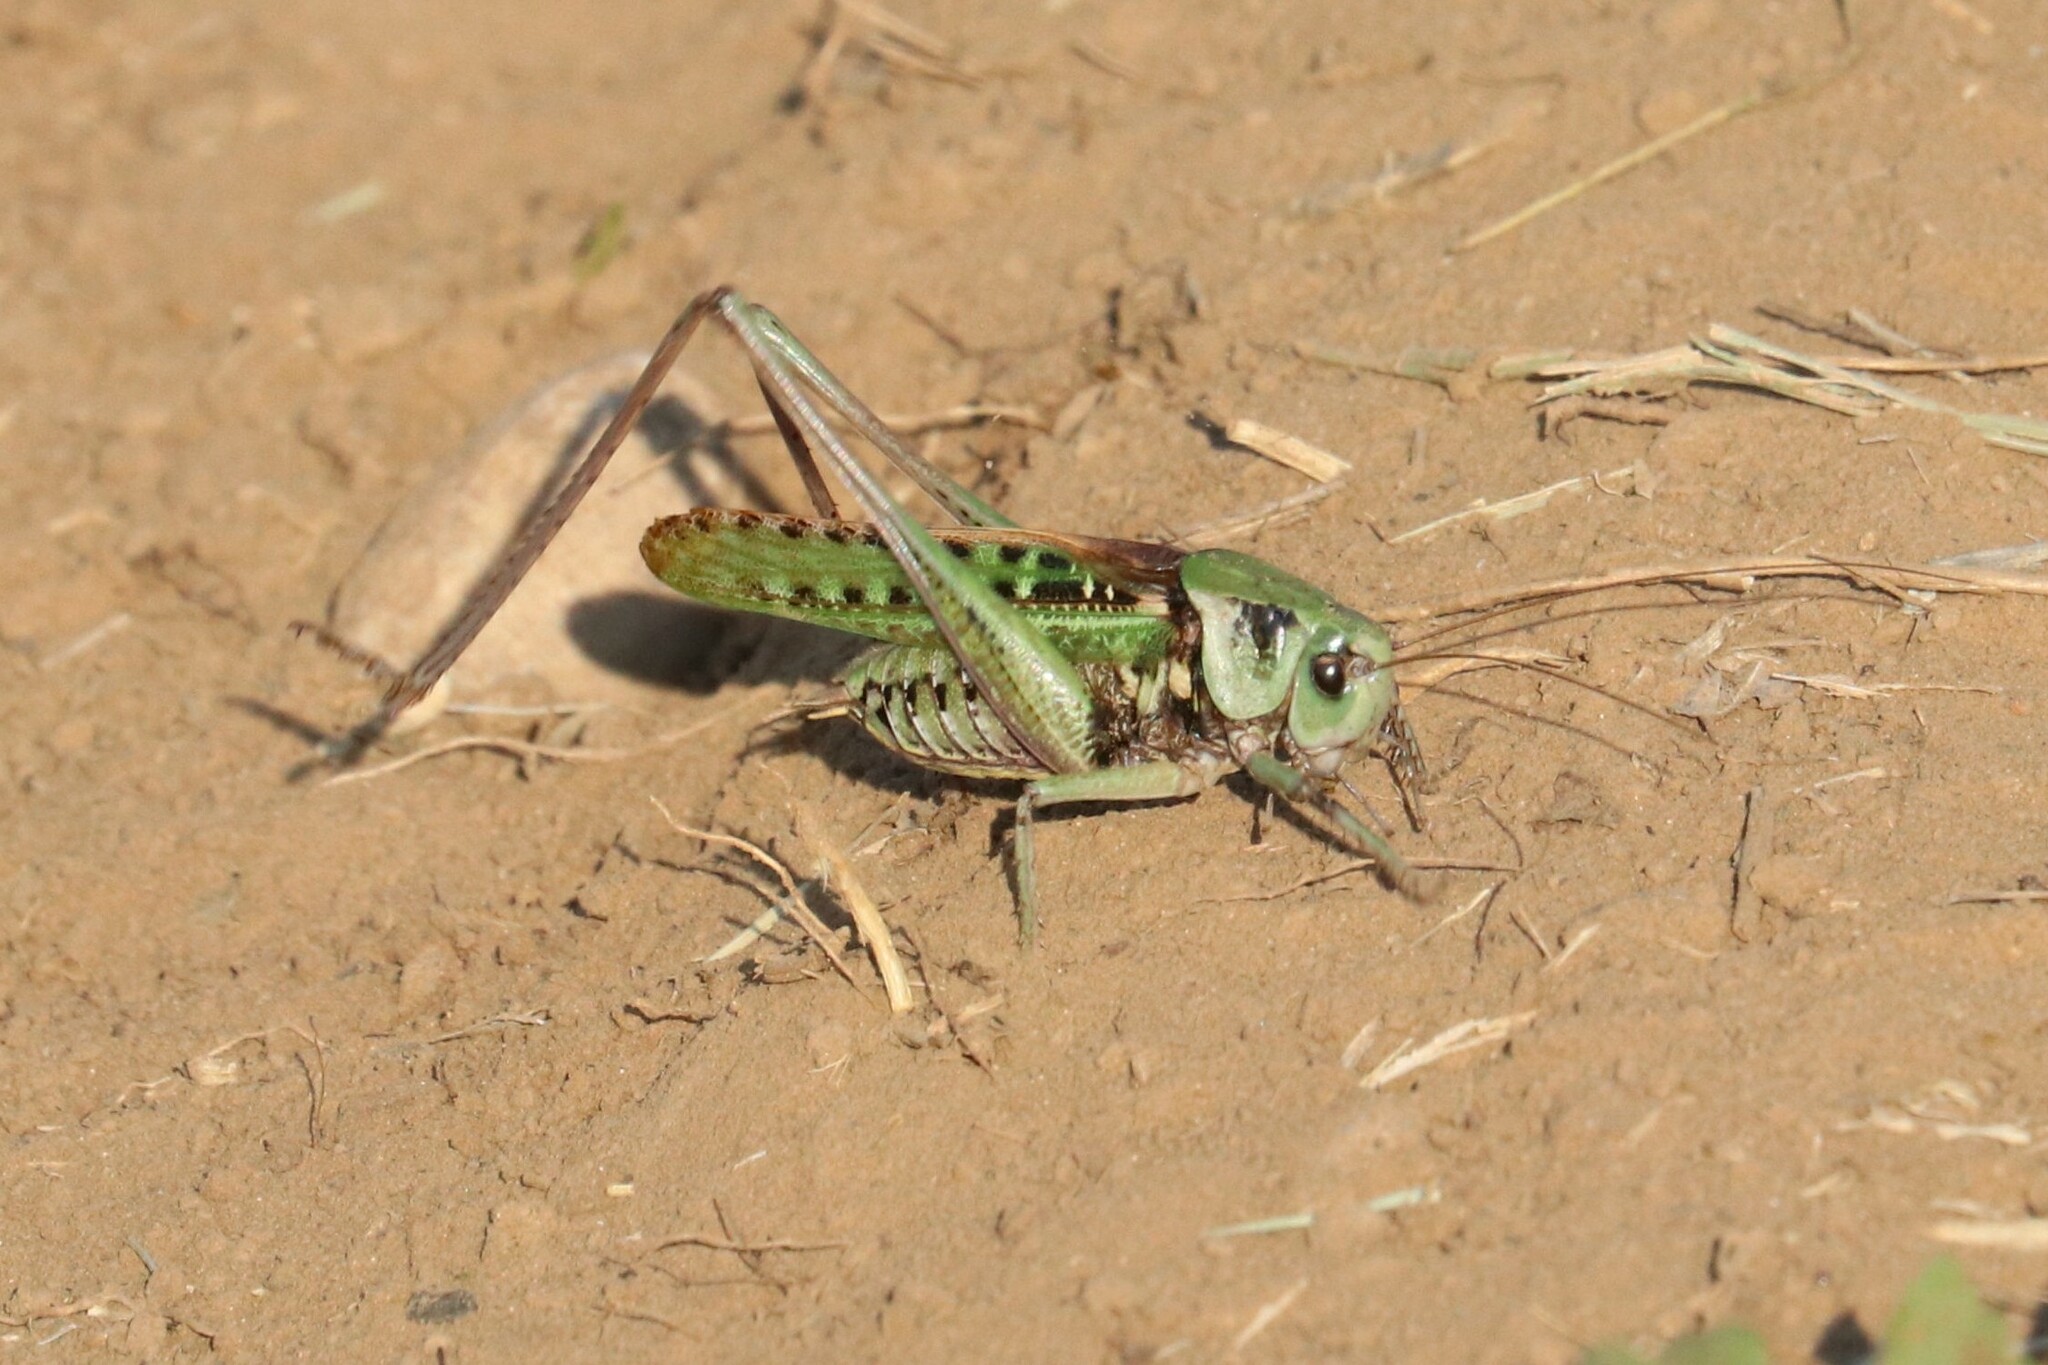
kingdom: Animalia
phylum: Arthropoda
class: Insecta
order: Orthoptera
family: Tettigoniidae
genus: Decticus
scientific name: Decticus verrucivorus
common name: Wart-biter
